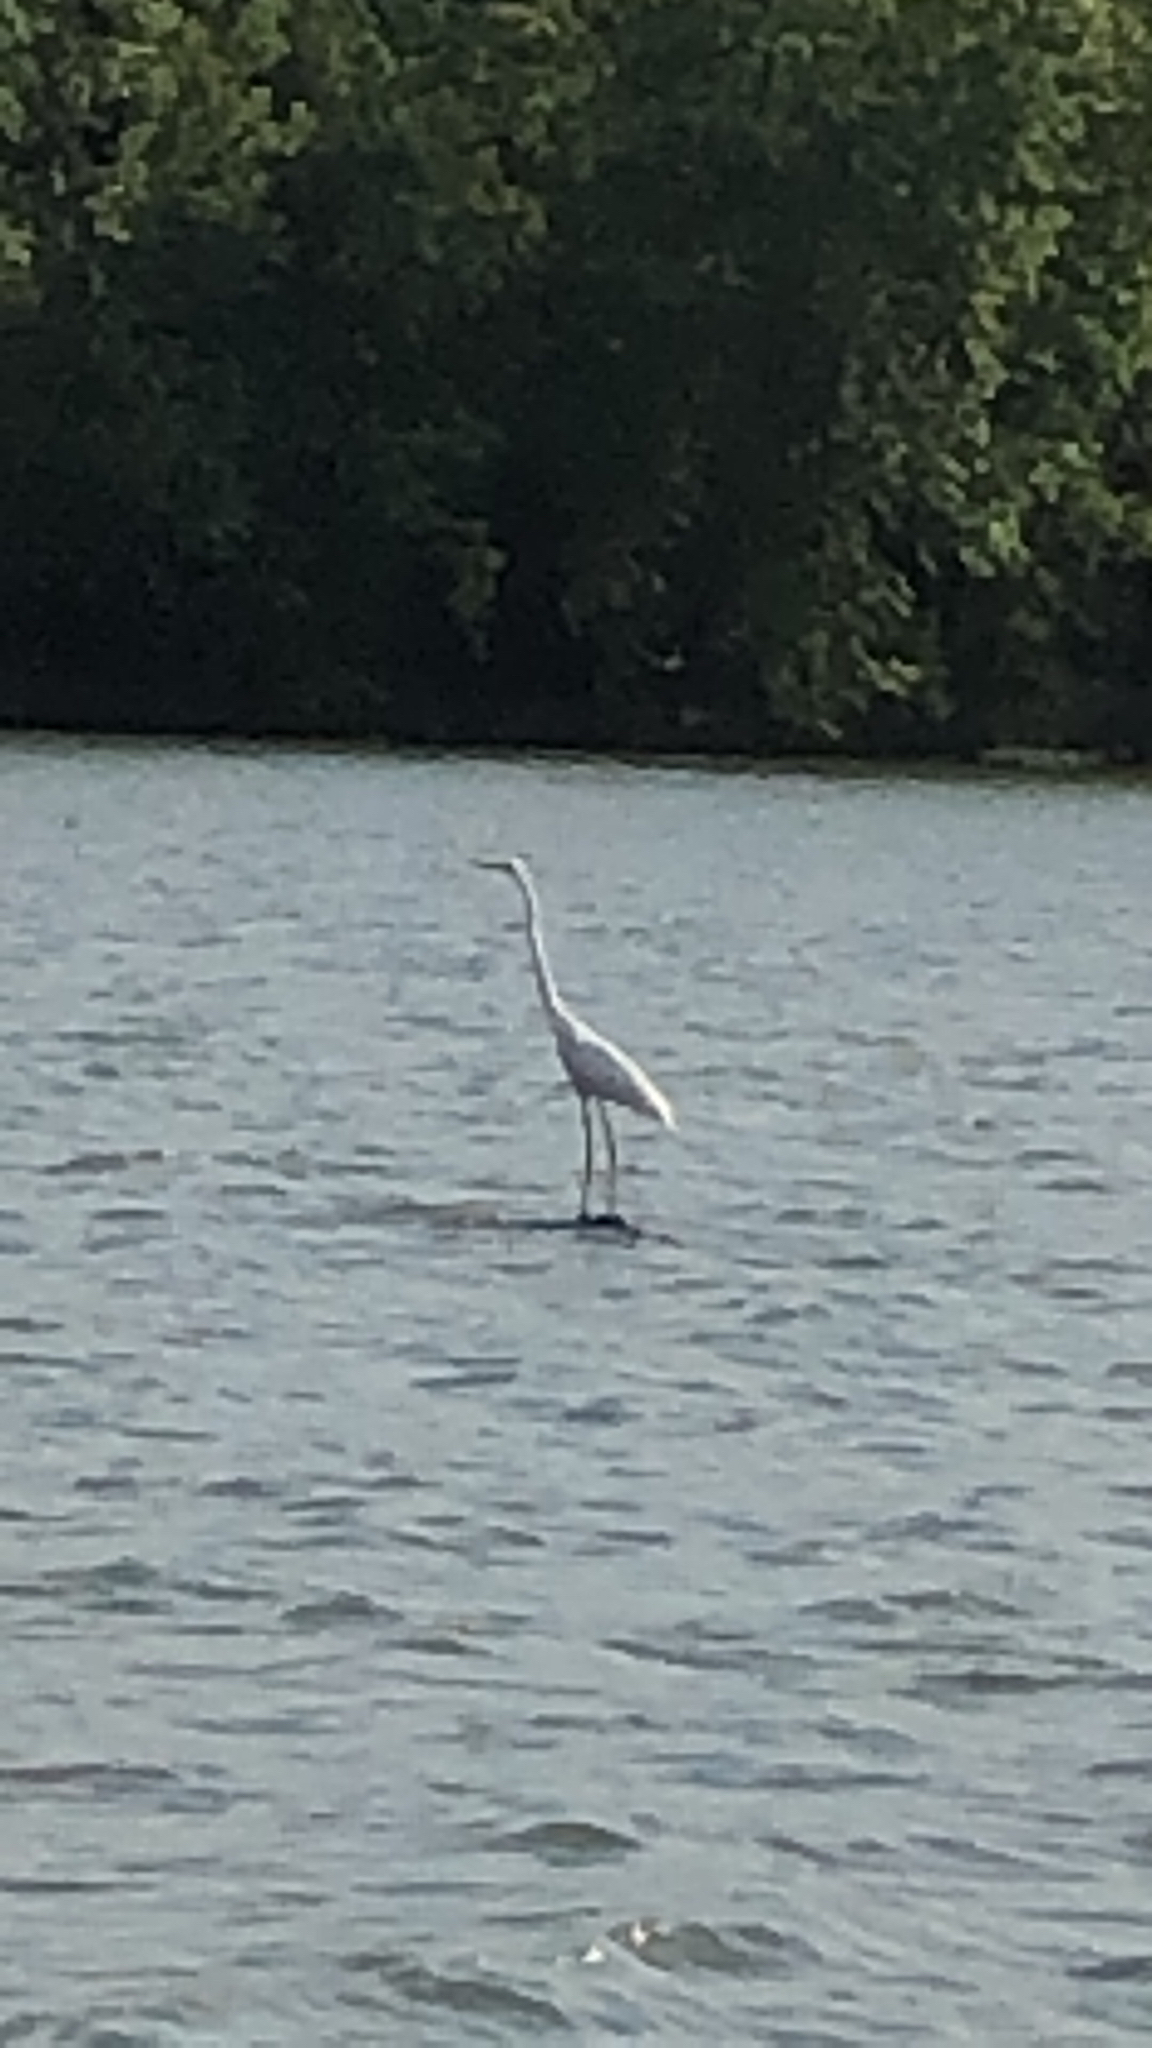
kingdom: Animalia
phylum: Chordata
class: Aves
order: Pelecaniformes
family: Ardeidae
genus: Ardea
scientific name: Ardea alba
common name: Great egret
